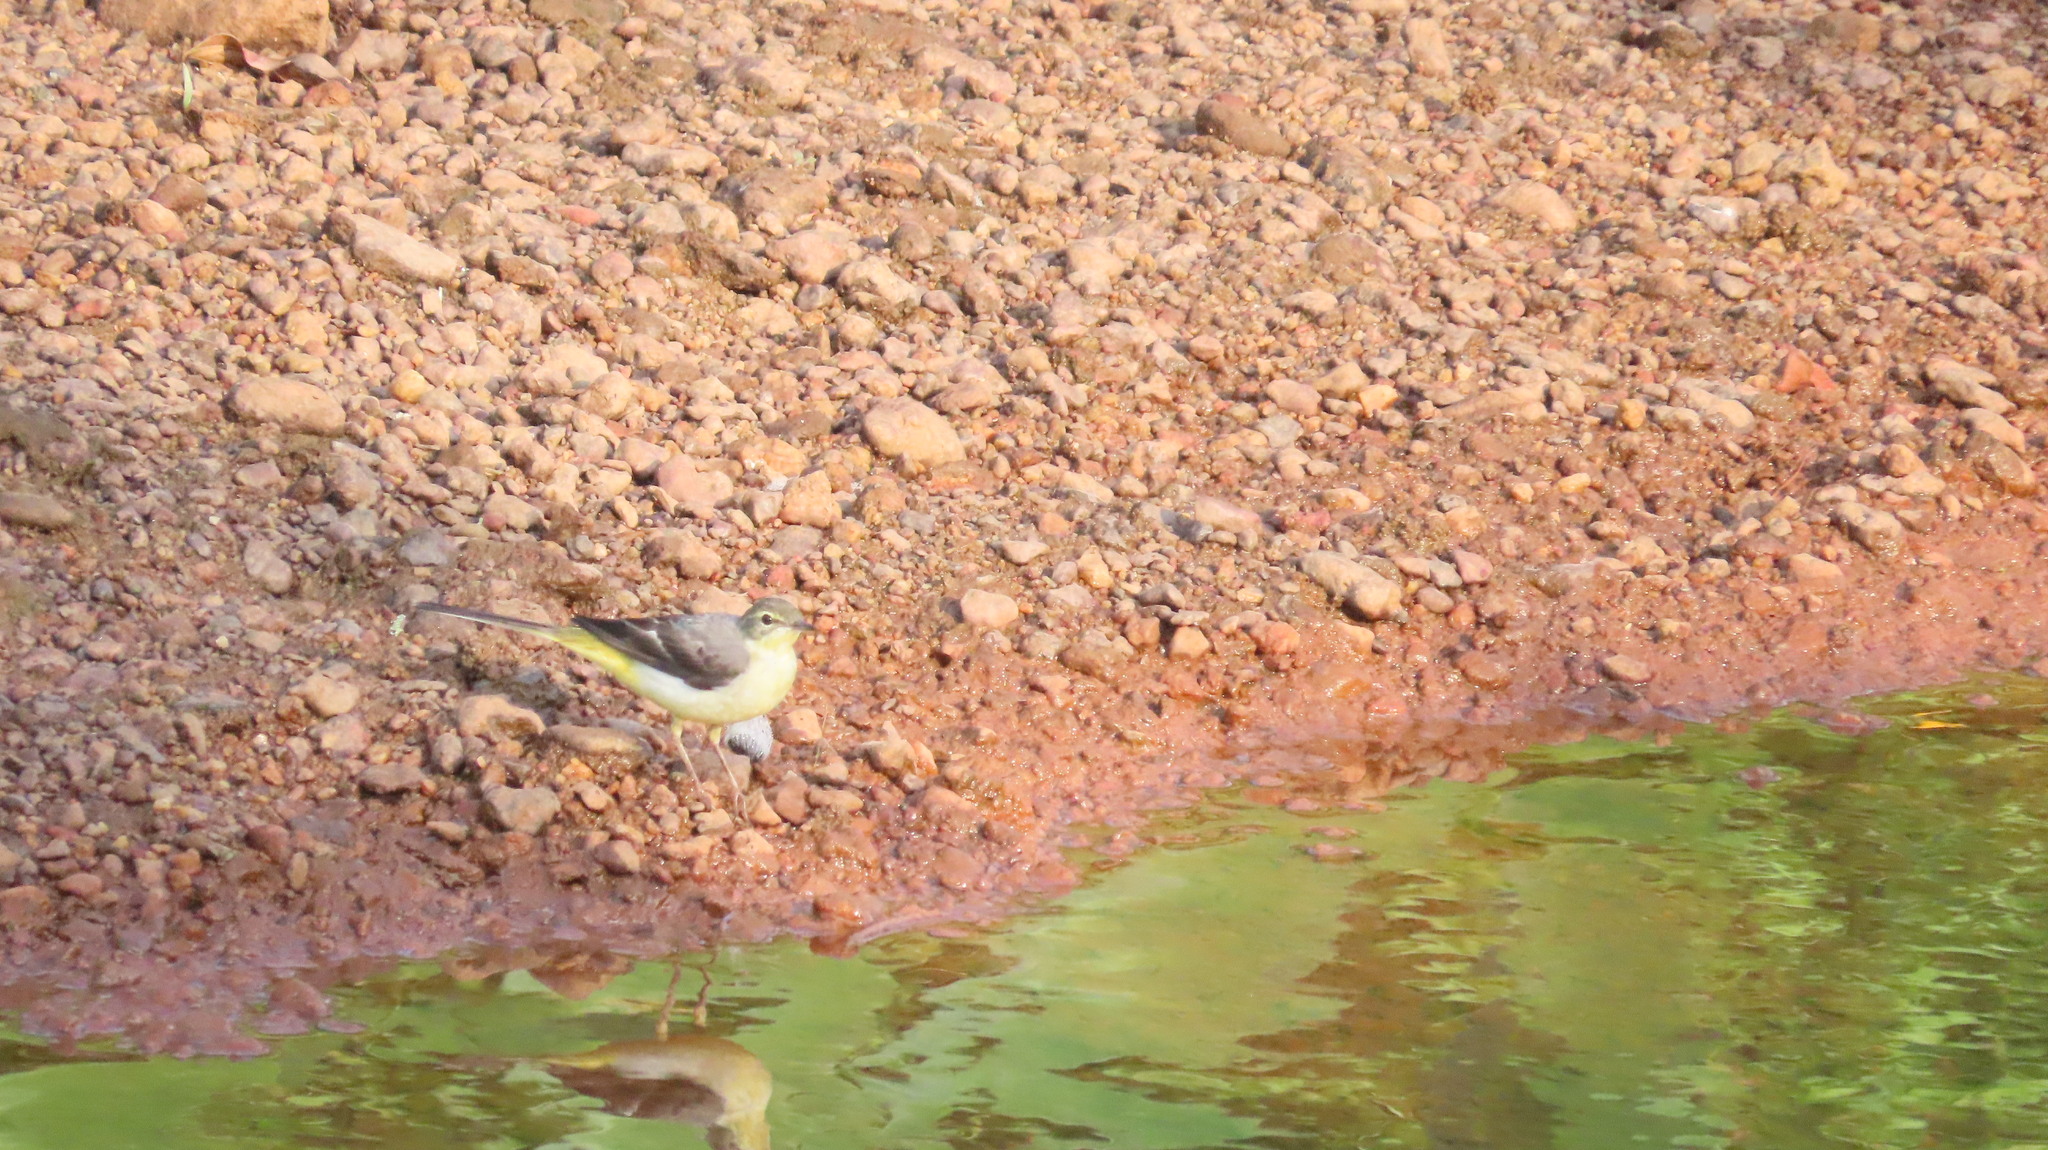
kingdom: Animalia
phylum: Chordata
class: Aves
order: Passeriformes
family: Motacillidae
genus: Motacilla
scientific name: Motacilla cinerea
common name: Grey wagtail
